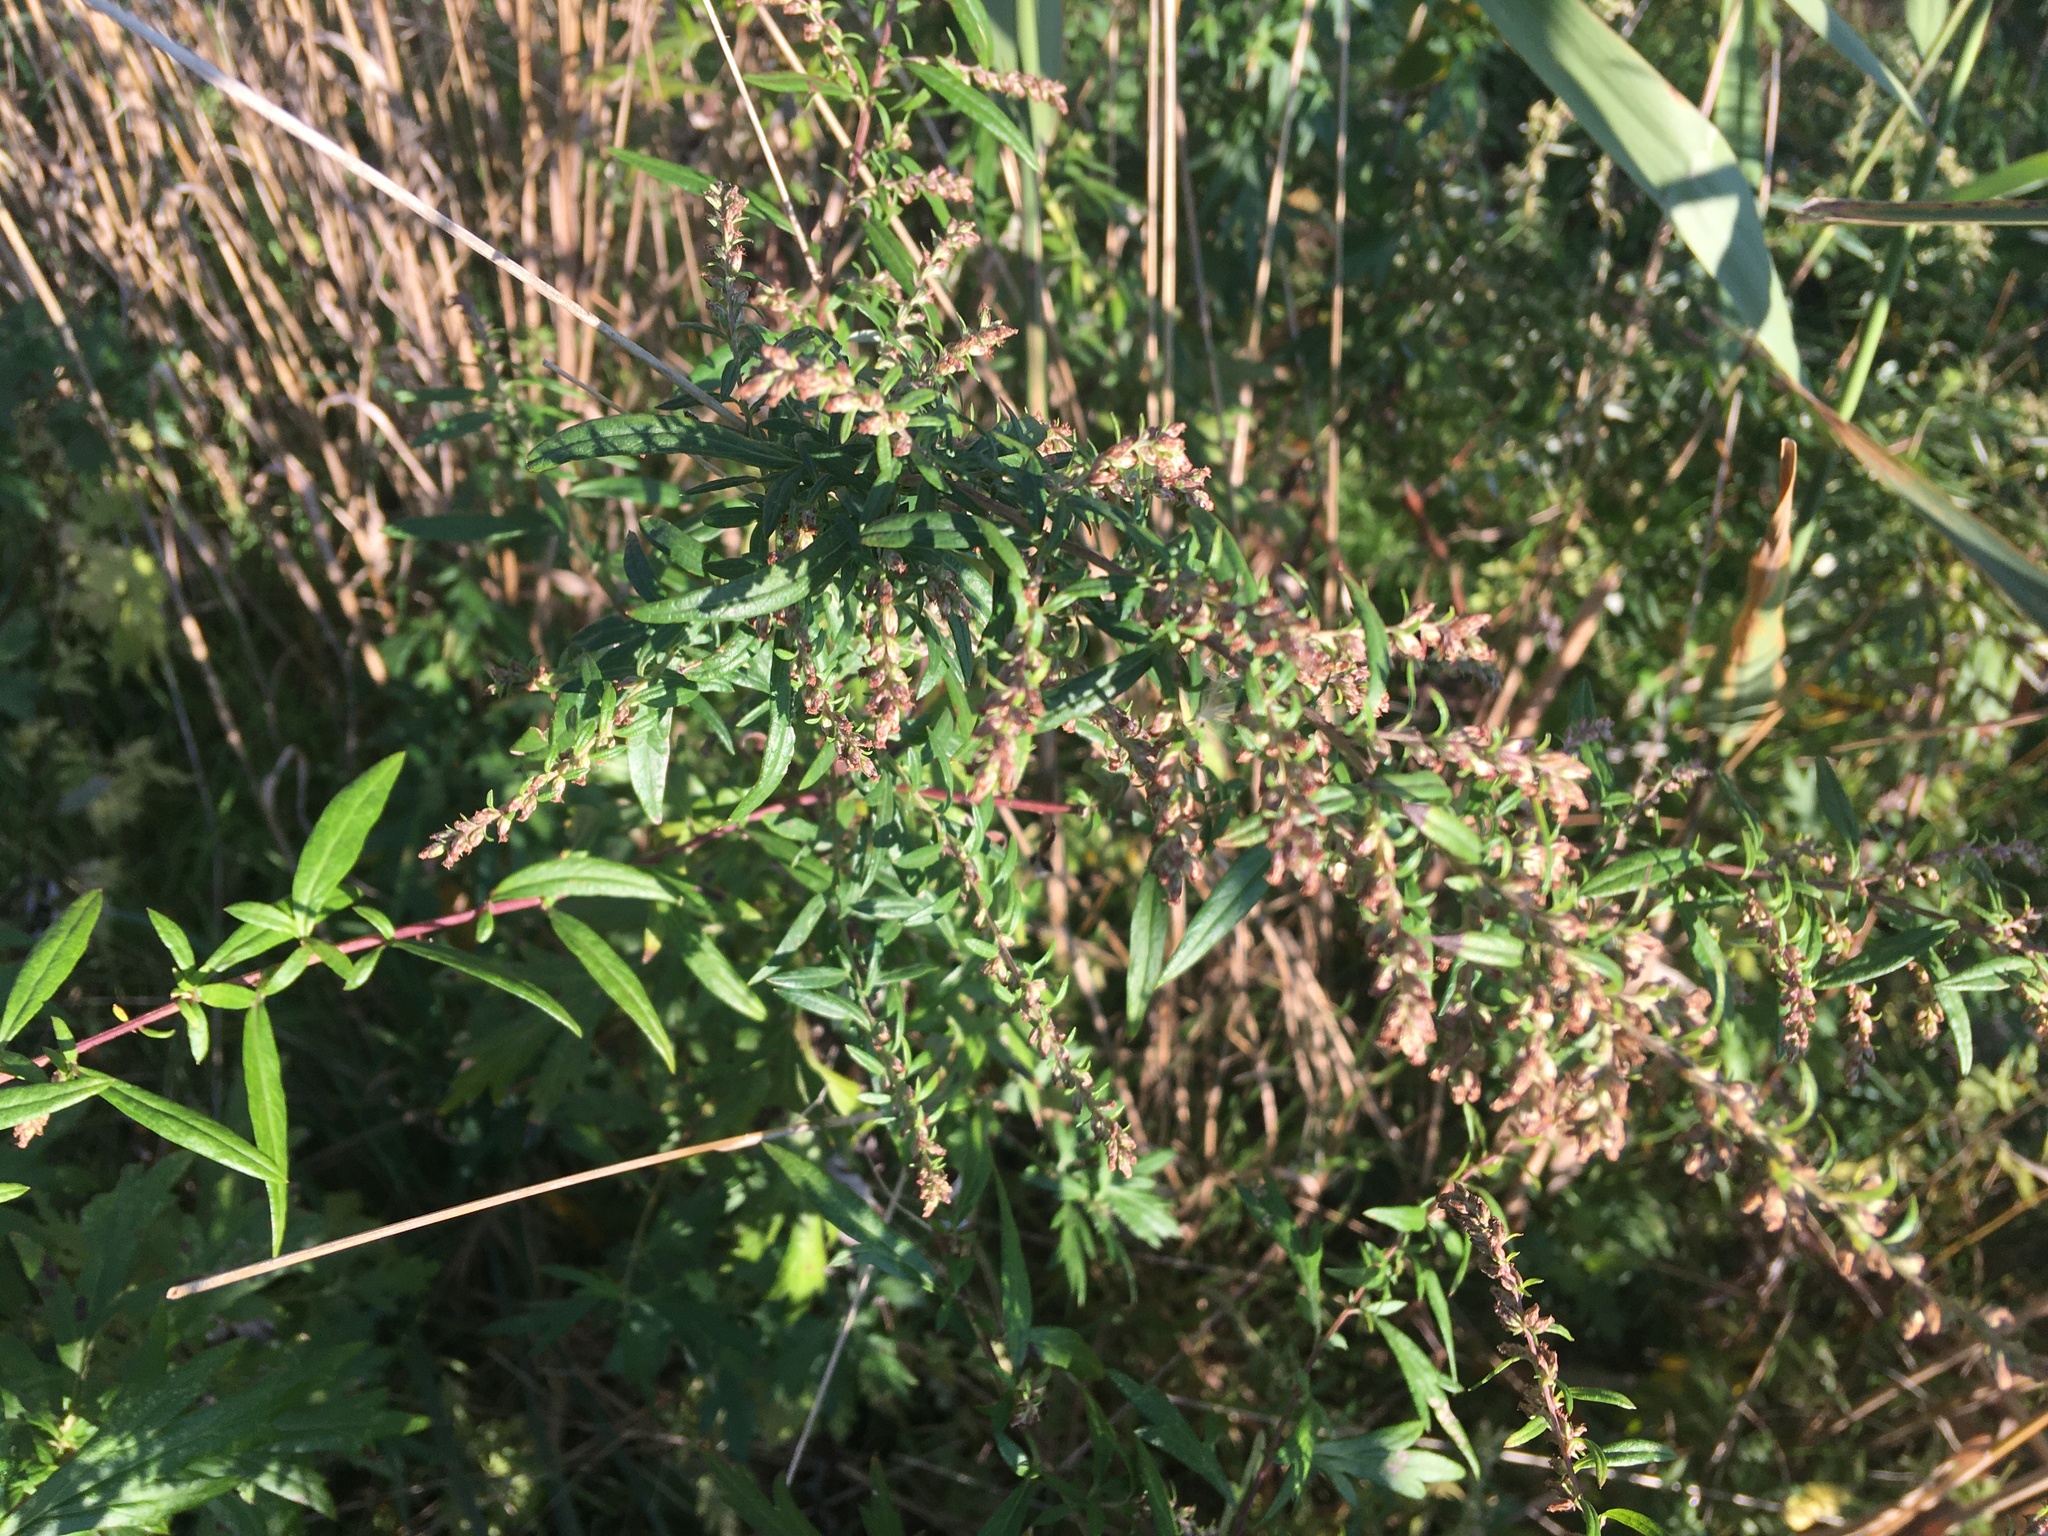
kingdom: Plantae
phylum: Tracheophyta
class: Magnoliopsida
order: Asterales
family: Asteraceae
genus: Artemisia
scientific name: Artemisia vulgaris
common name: Mugwort
